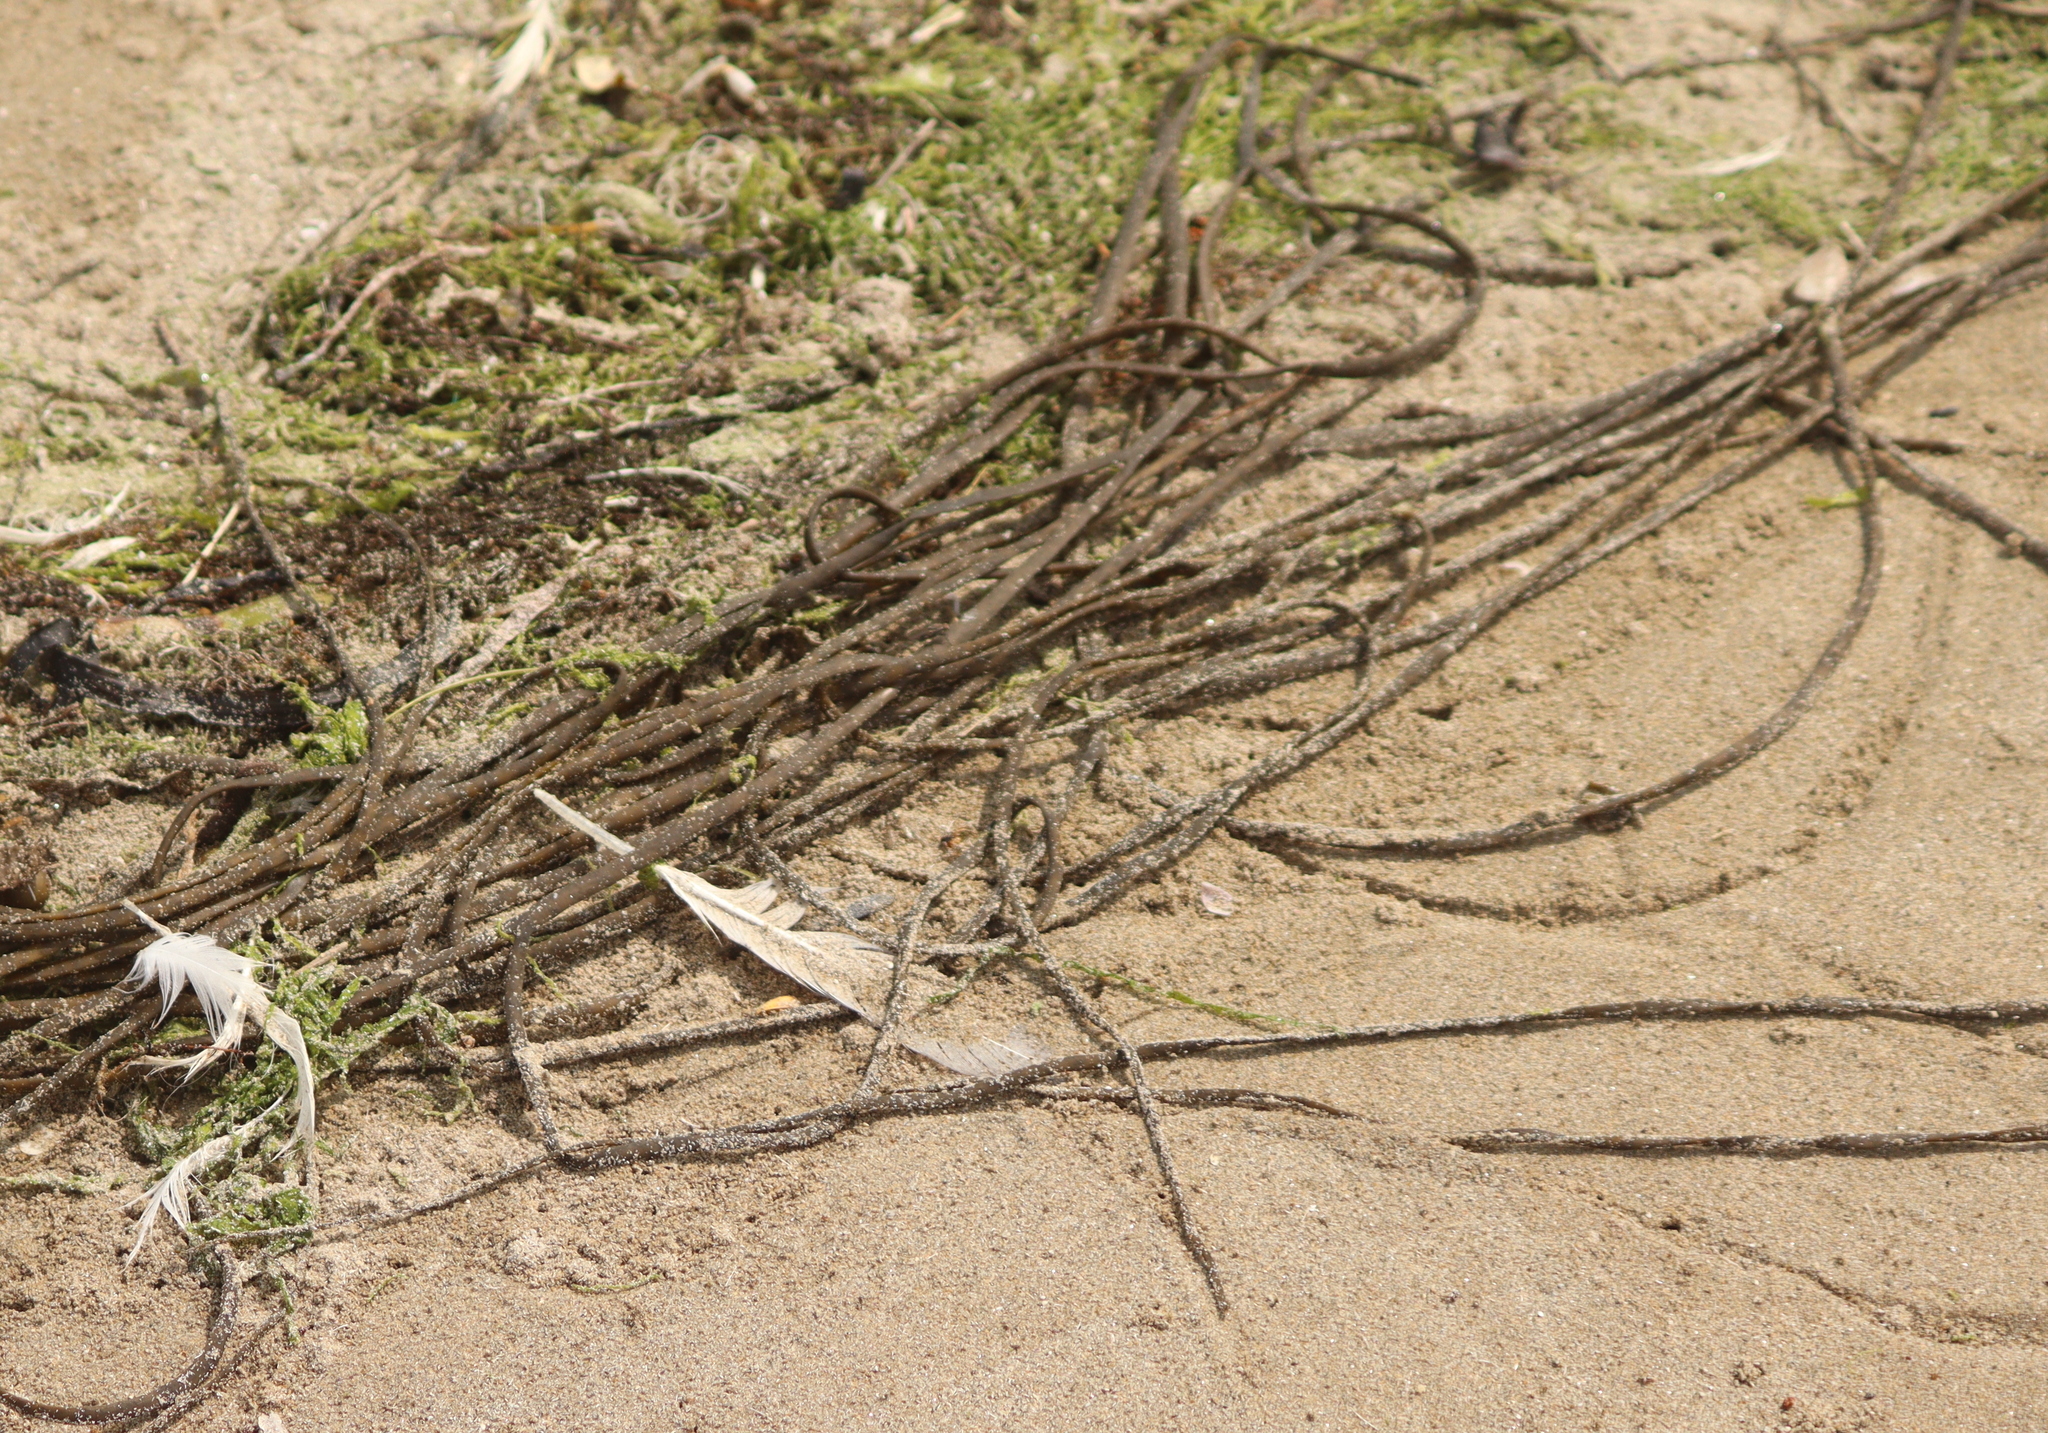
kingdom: Chromista
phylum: Ochrophyta
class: Phaeophyceae
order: Fucales
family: Himanthaliaceae
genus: Himanthalia
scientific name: Himanthalia elongata
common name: Sea-thong
